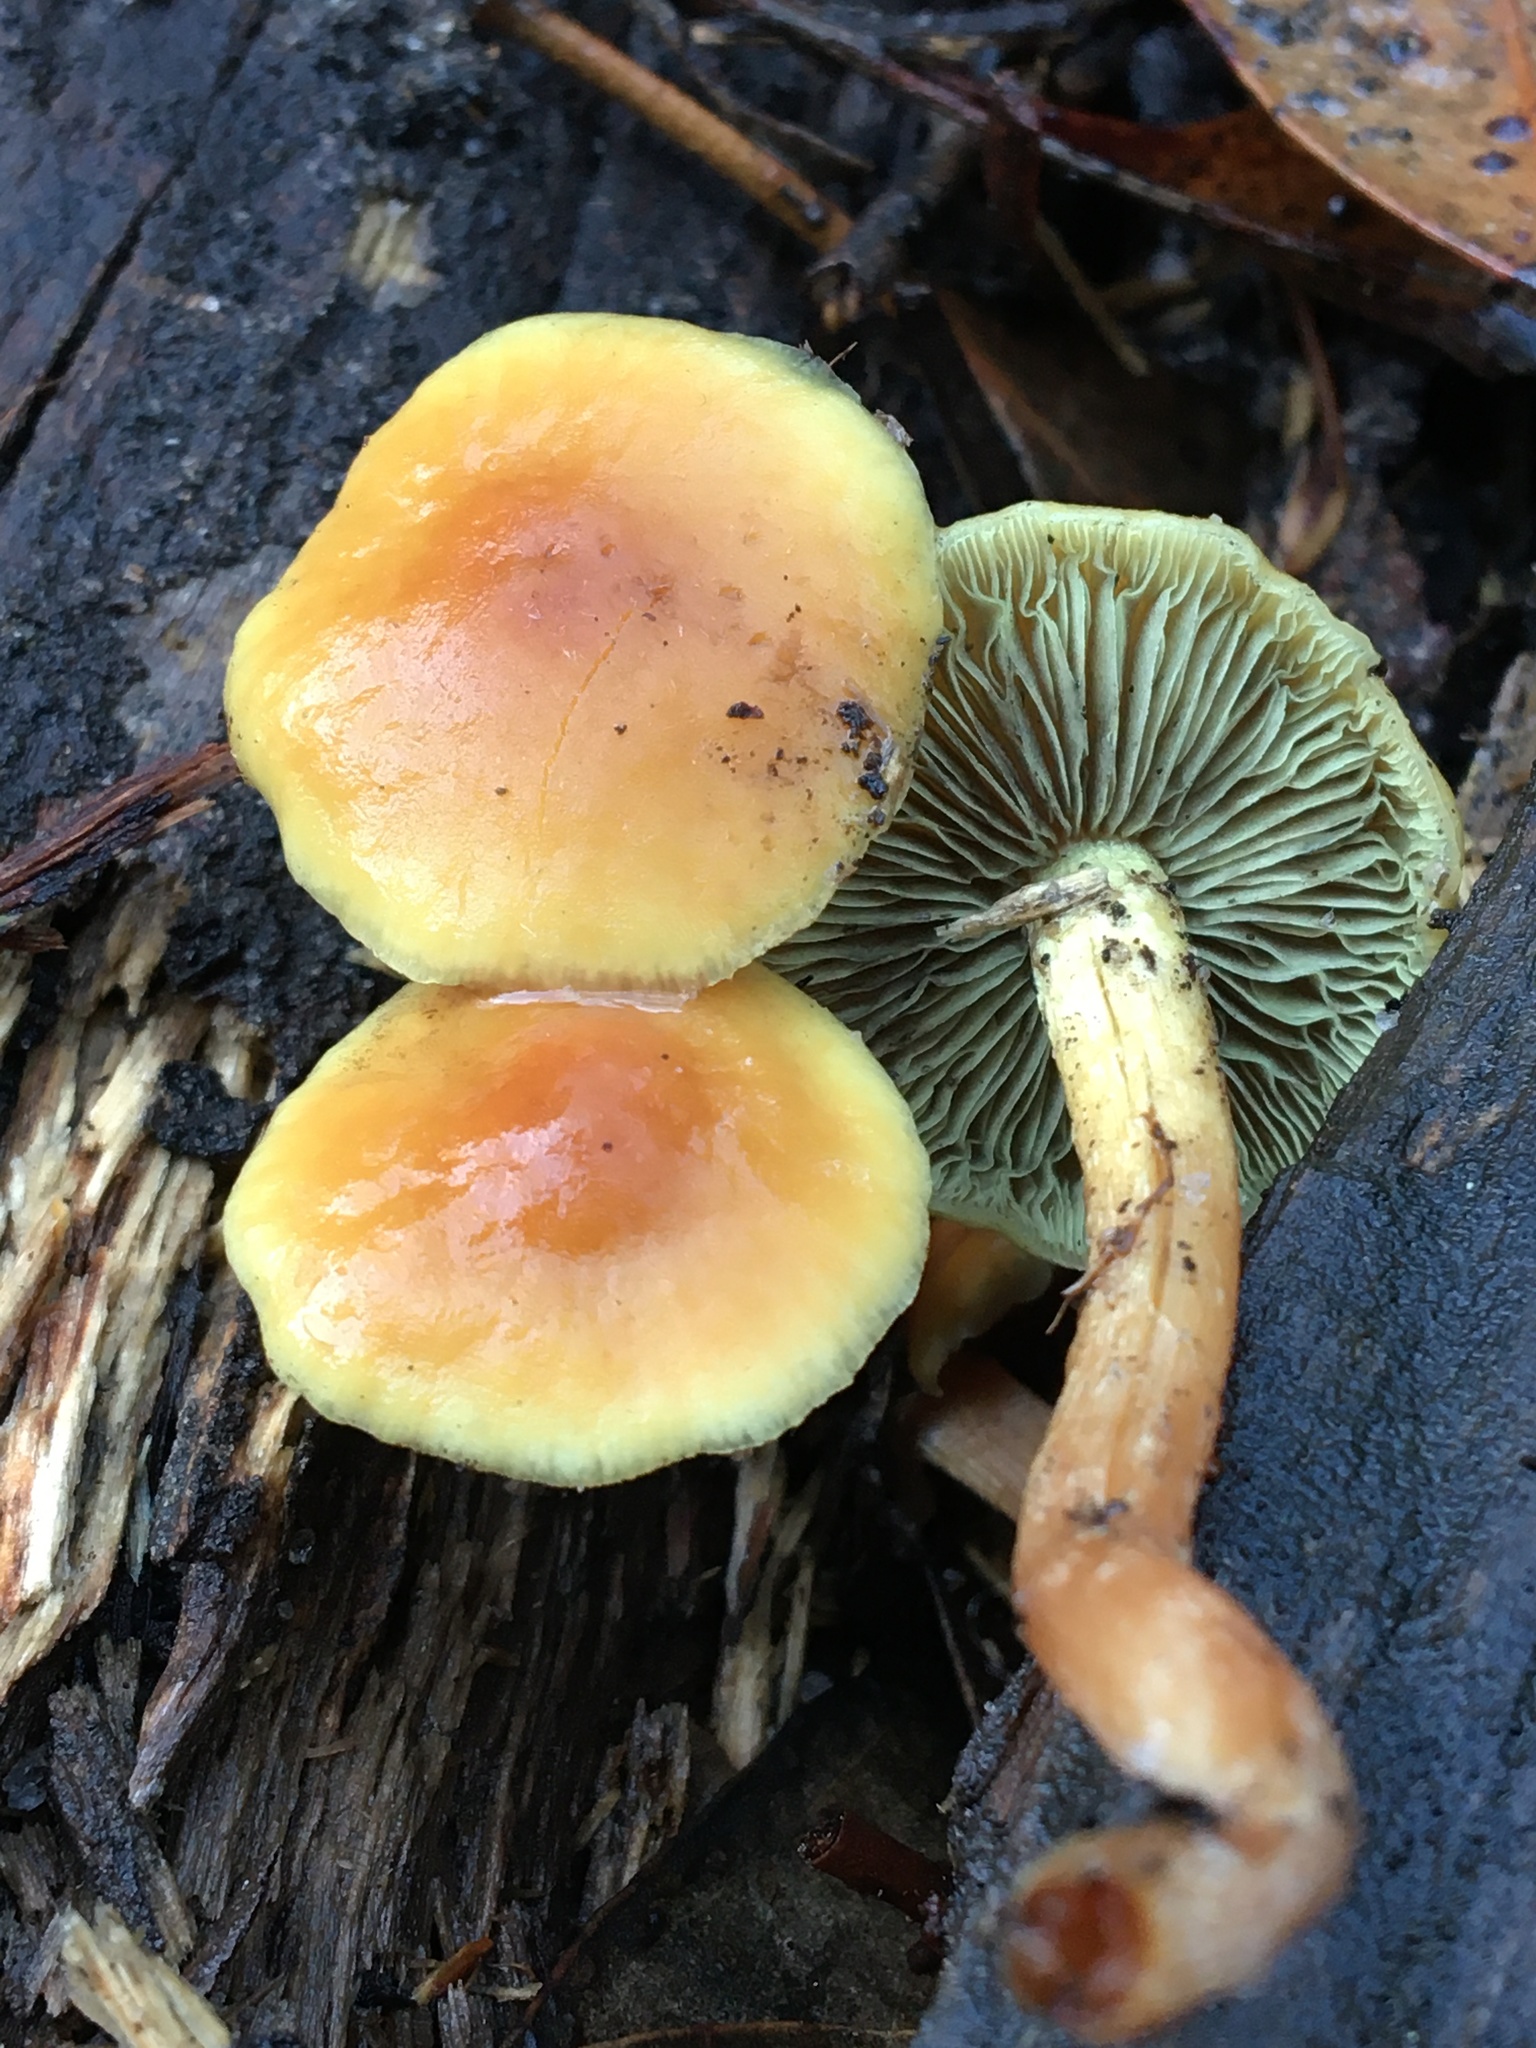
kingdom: Fungi
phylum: Basidiomycota
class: Agaricomycetes
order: Agaricales
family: Strophariaceae
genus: Hypholoma
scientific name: Hypholoma fasciculare
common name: Sulphur tuft
